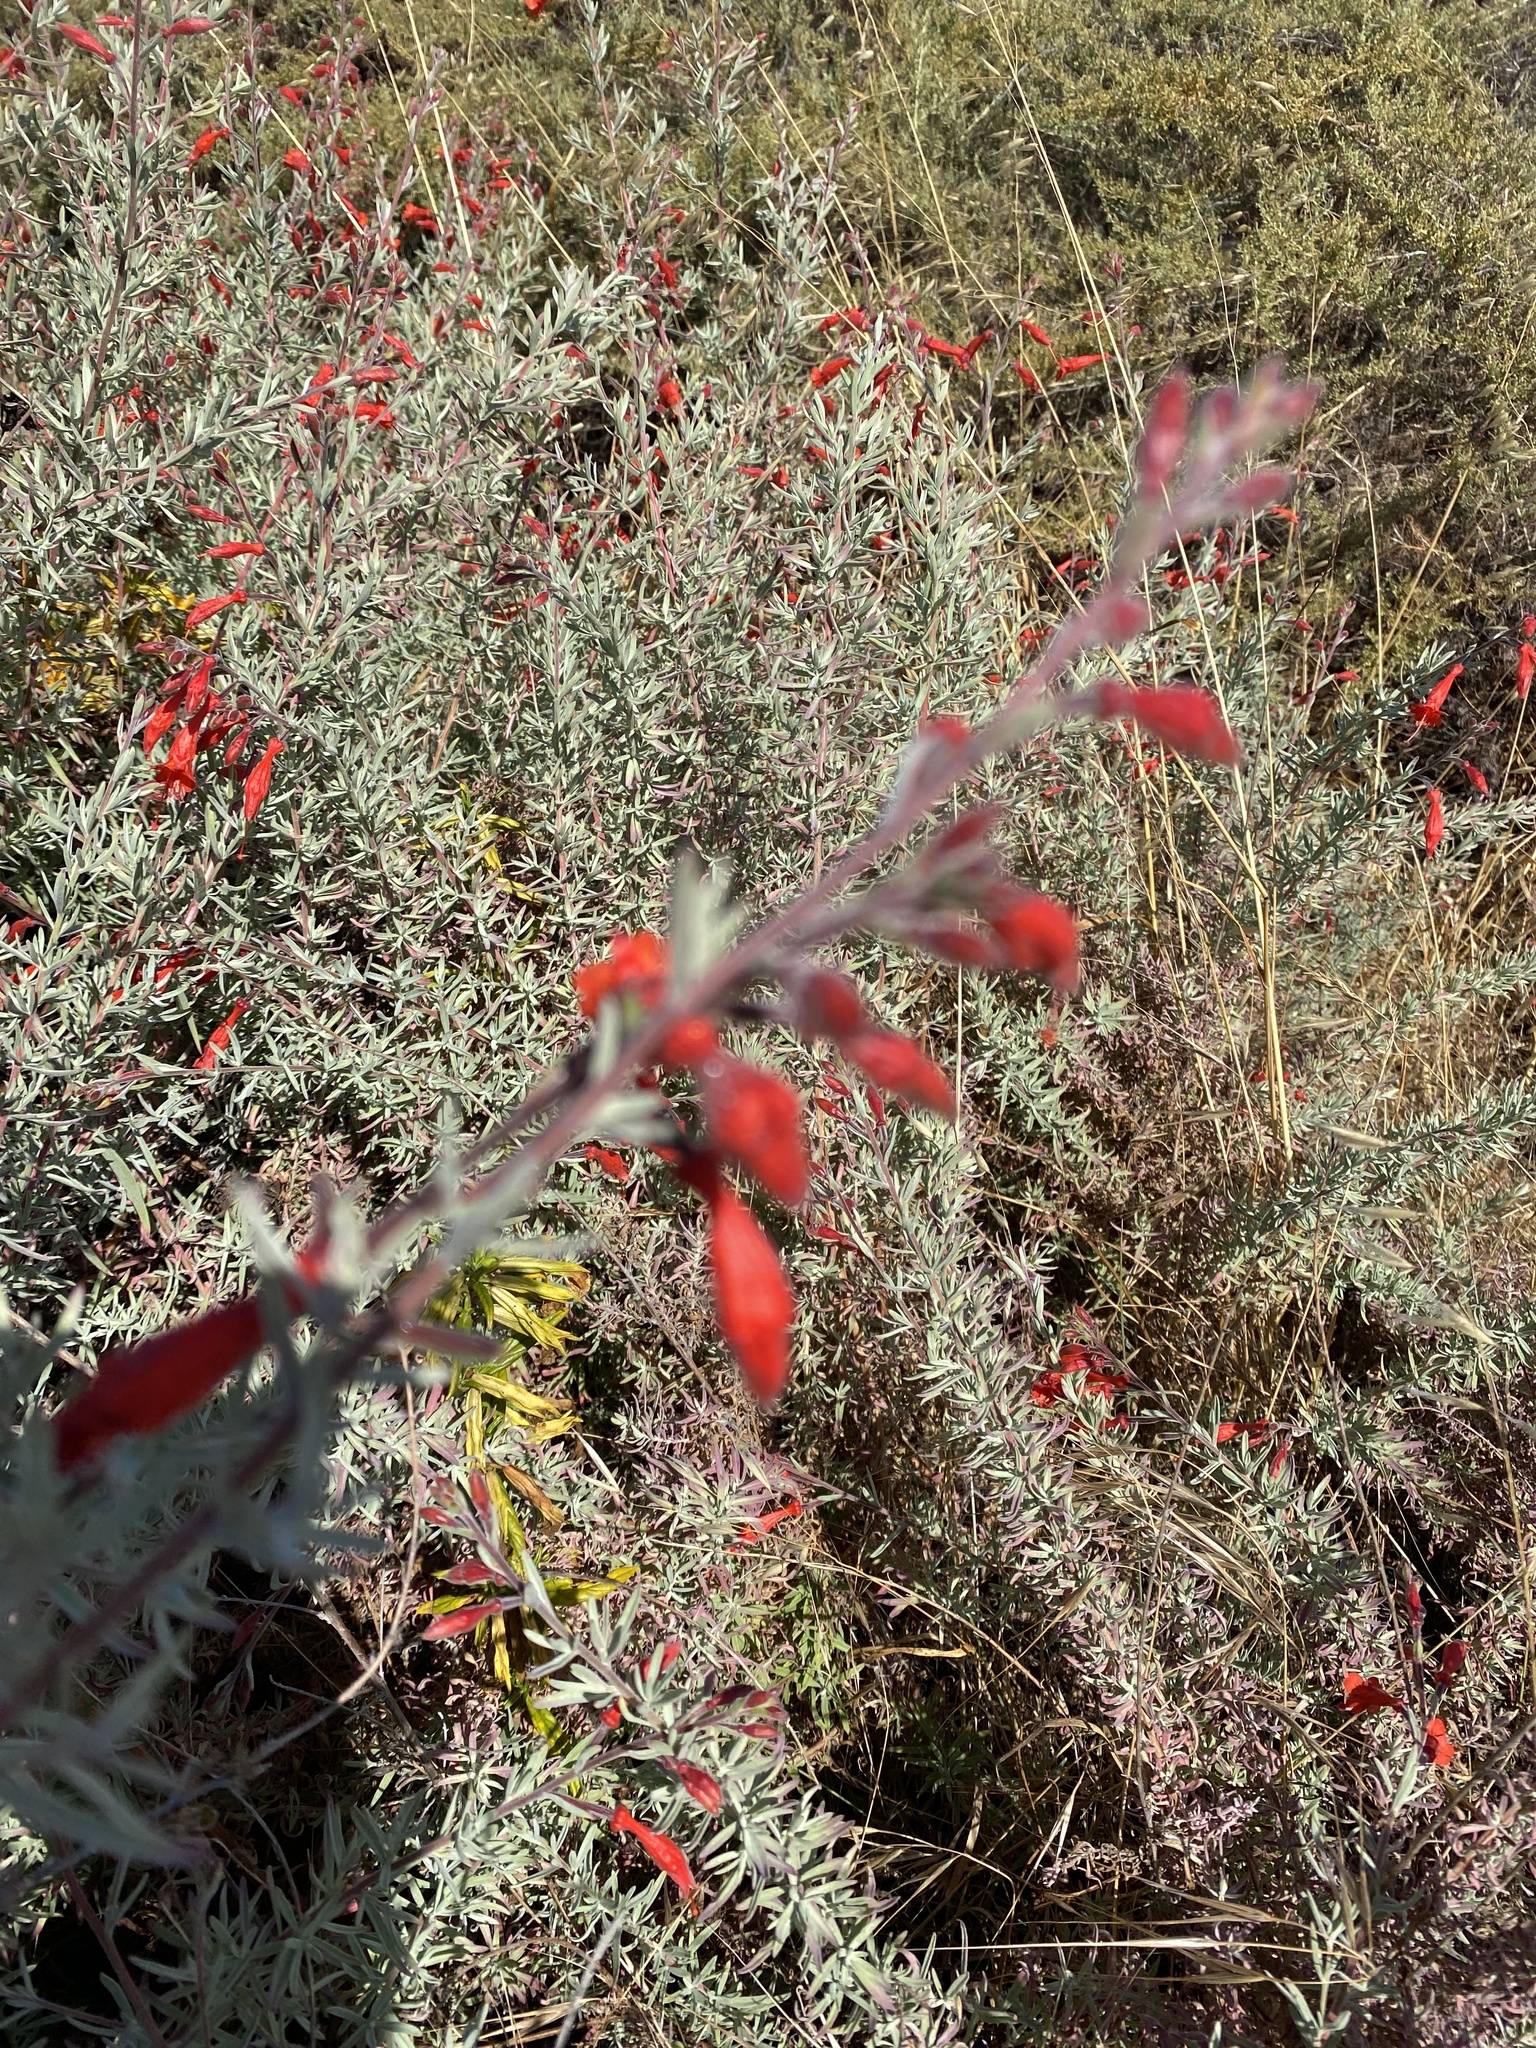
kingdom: Plantae
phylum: Tracheophyta
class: Magnoliopsida
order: Myrtales
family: Onagraceae
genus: Epilobium
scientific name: Epilobium canum
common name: California-fuchsia
